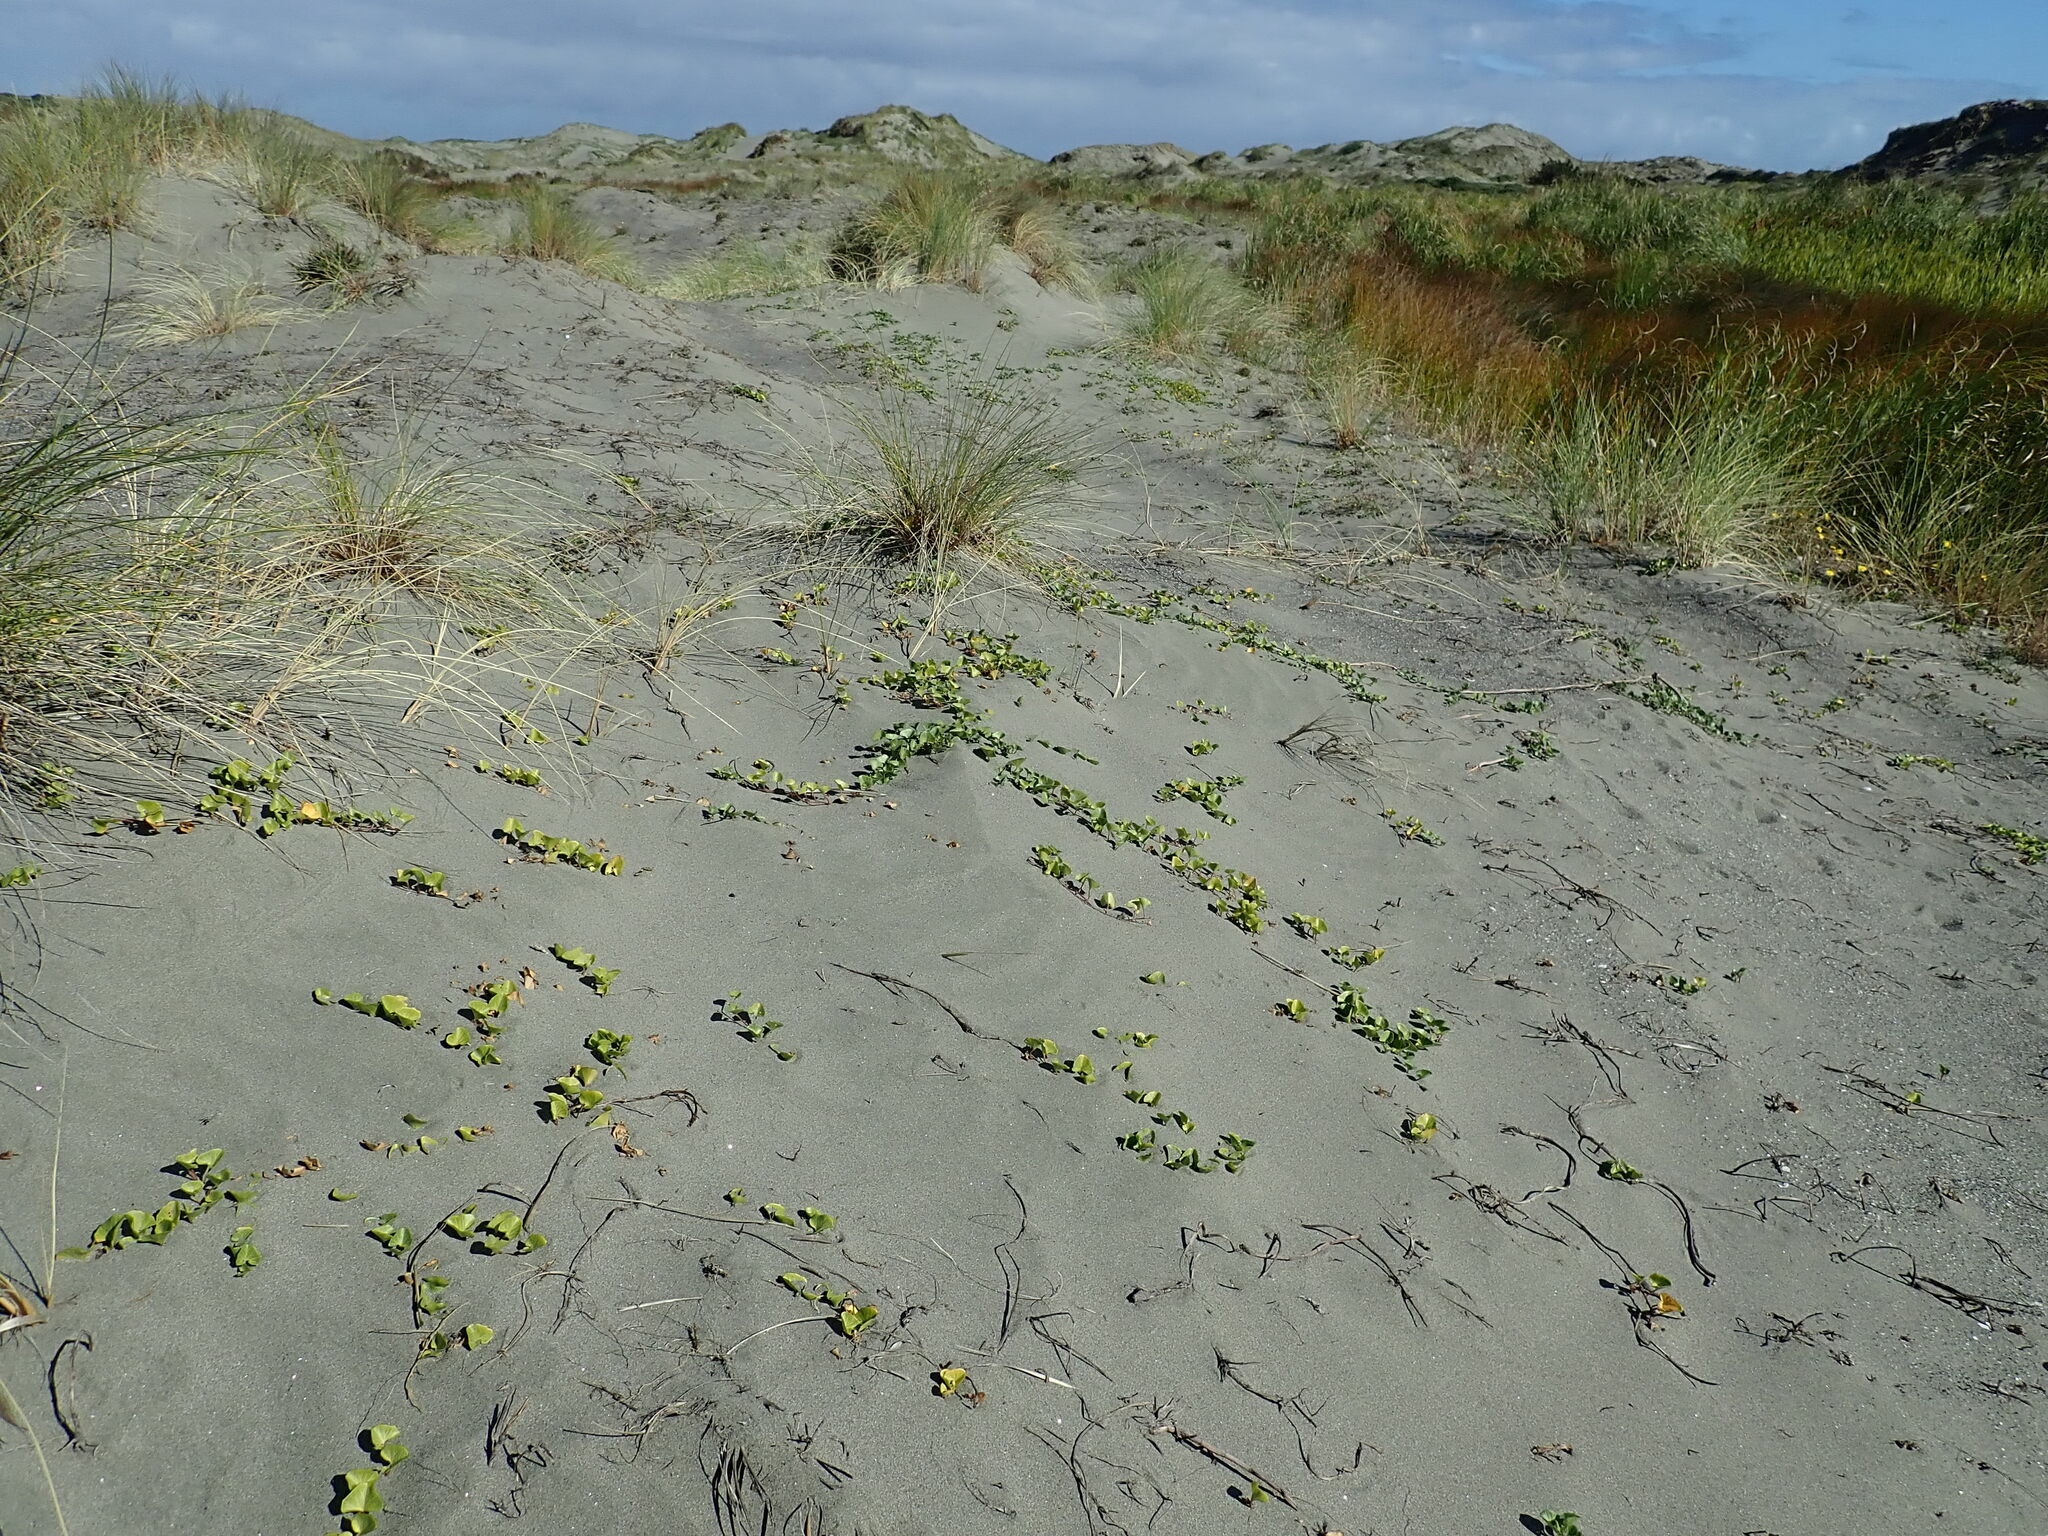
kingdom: Plantae
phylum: Tracheophyta
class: Magnoliopsida
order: Solanales
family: Convolvulaceae
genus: Calystegia
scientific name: Calystegia soldanella
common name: Sea bindweed
